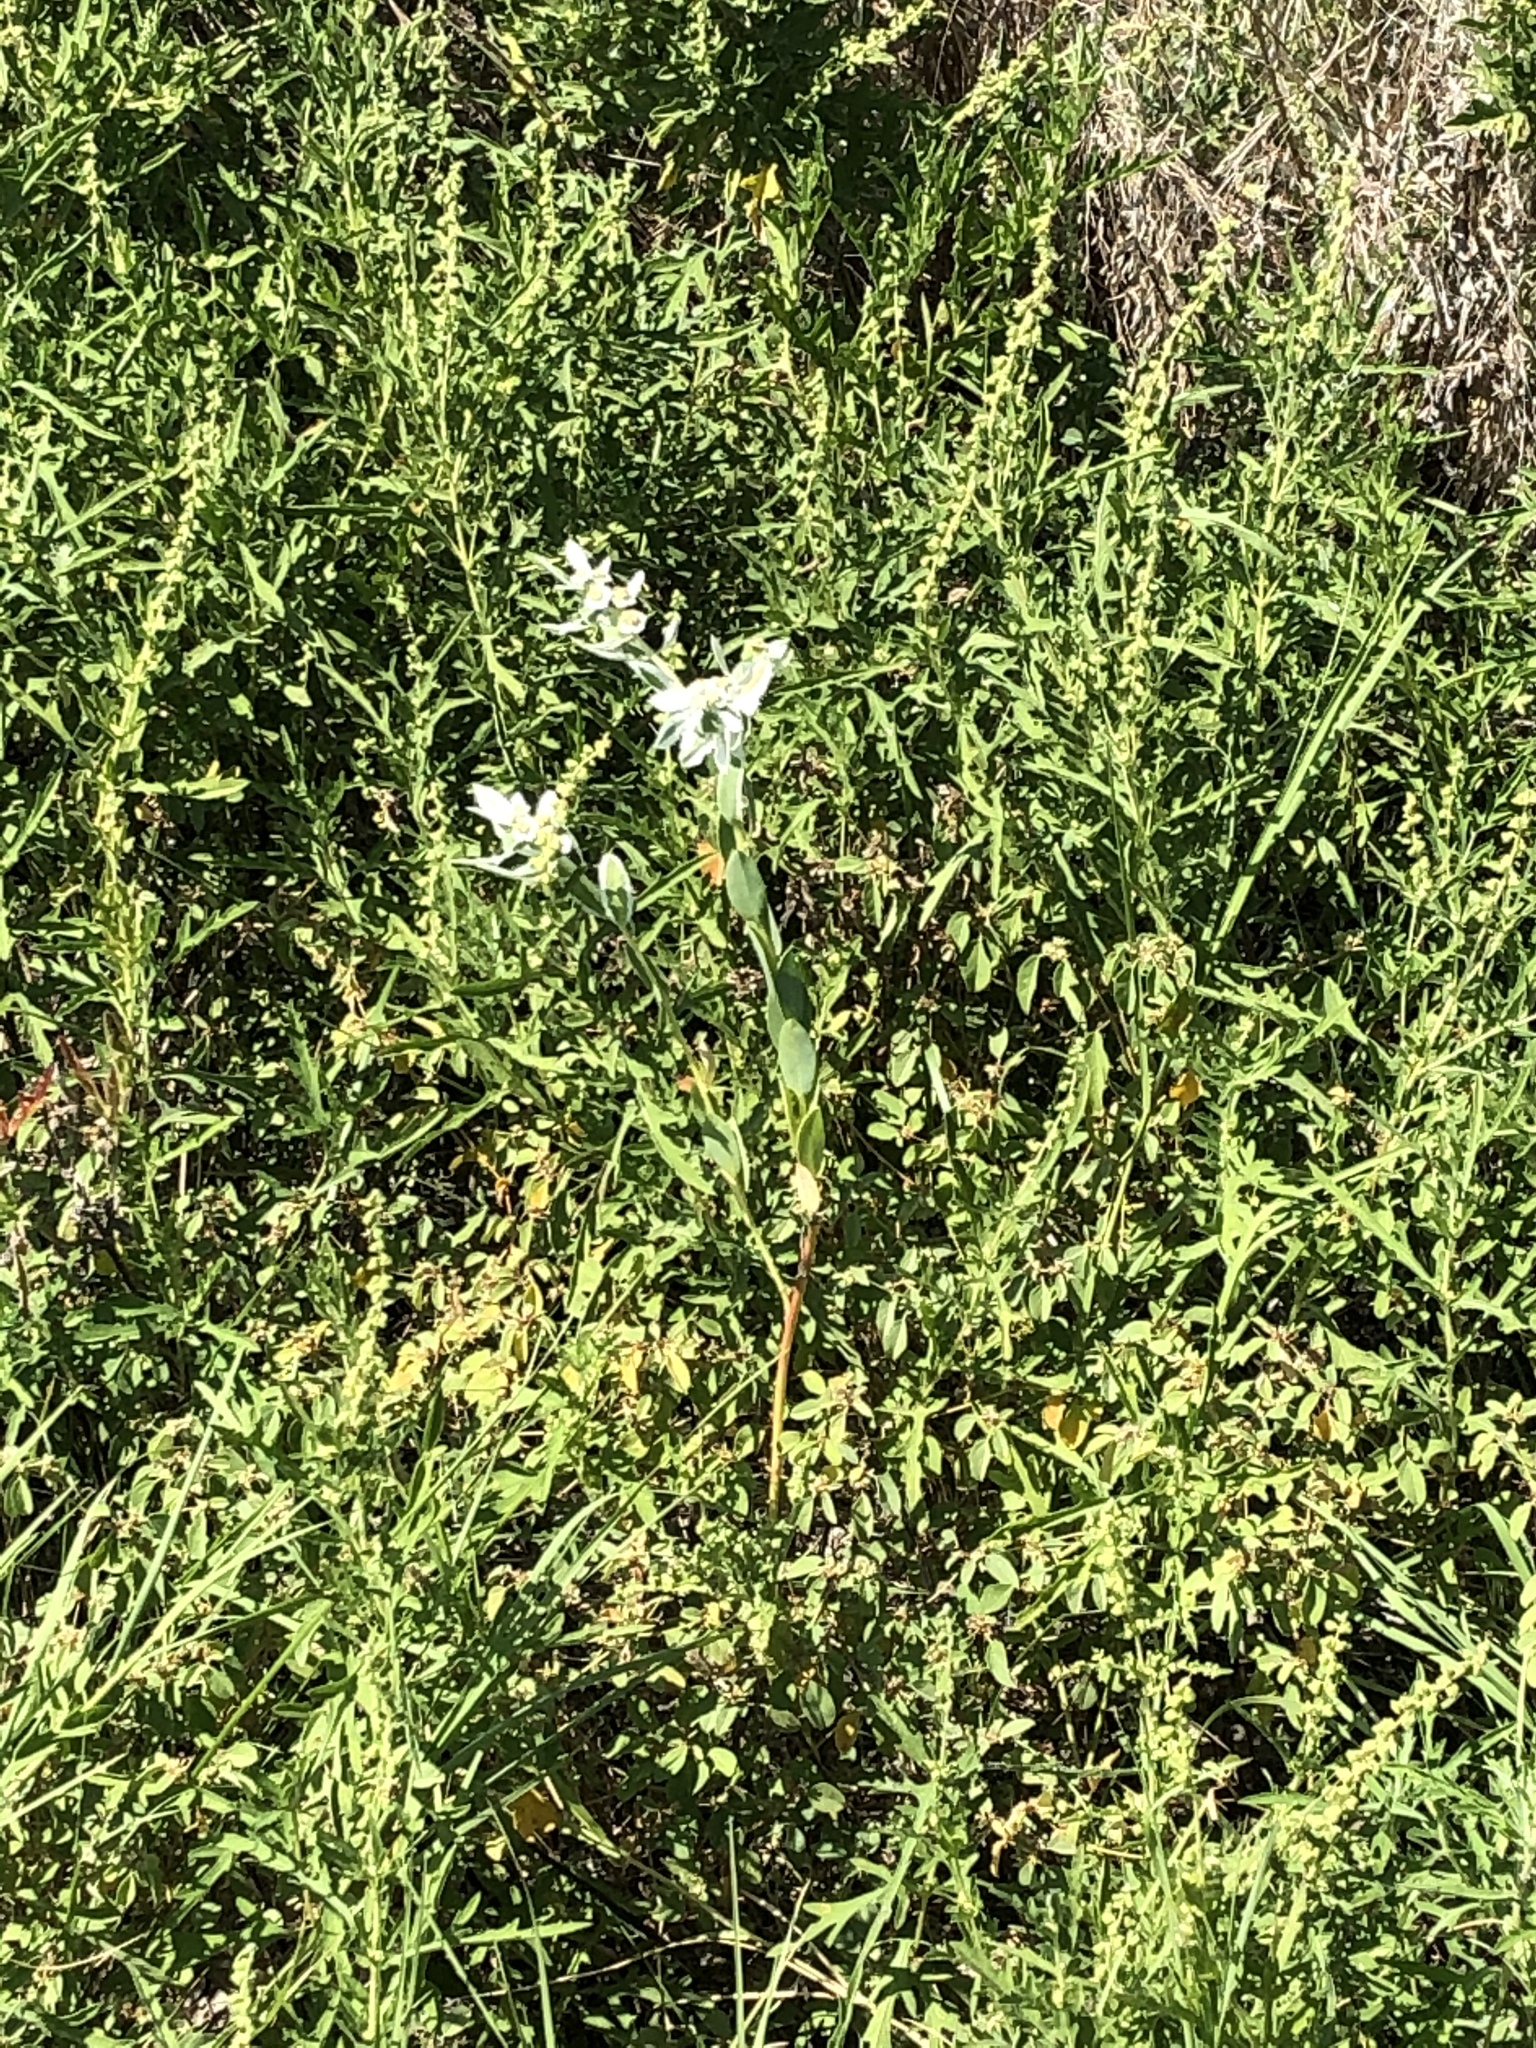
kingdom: Plantae
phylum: Tracheophyta
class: Magnoliopsida
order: Malpighiales
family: Euphorbiaceae
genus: Euphorbia
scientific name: Euphorbia marginata
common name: Ghostweed
